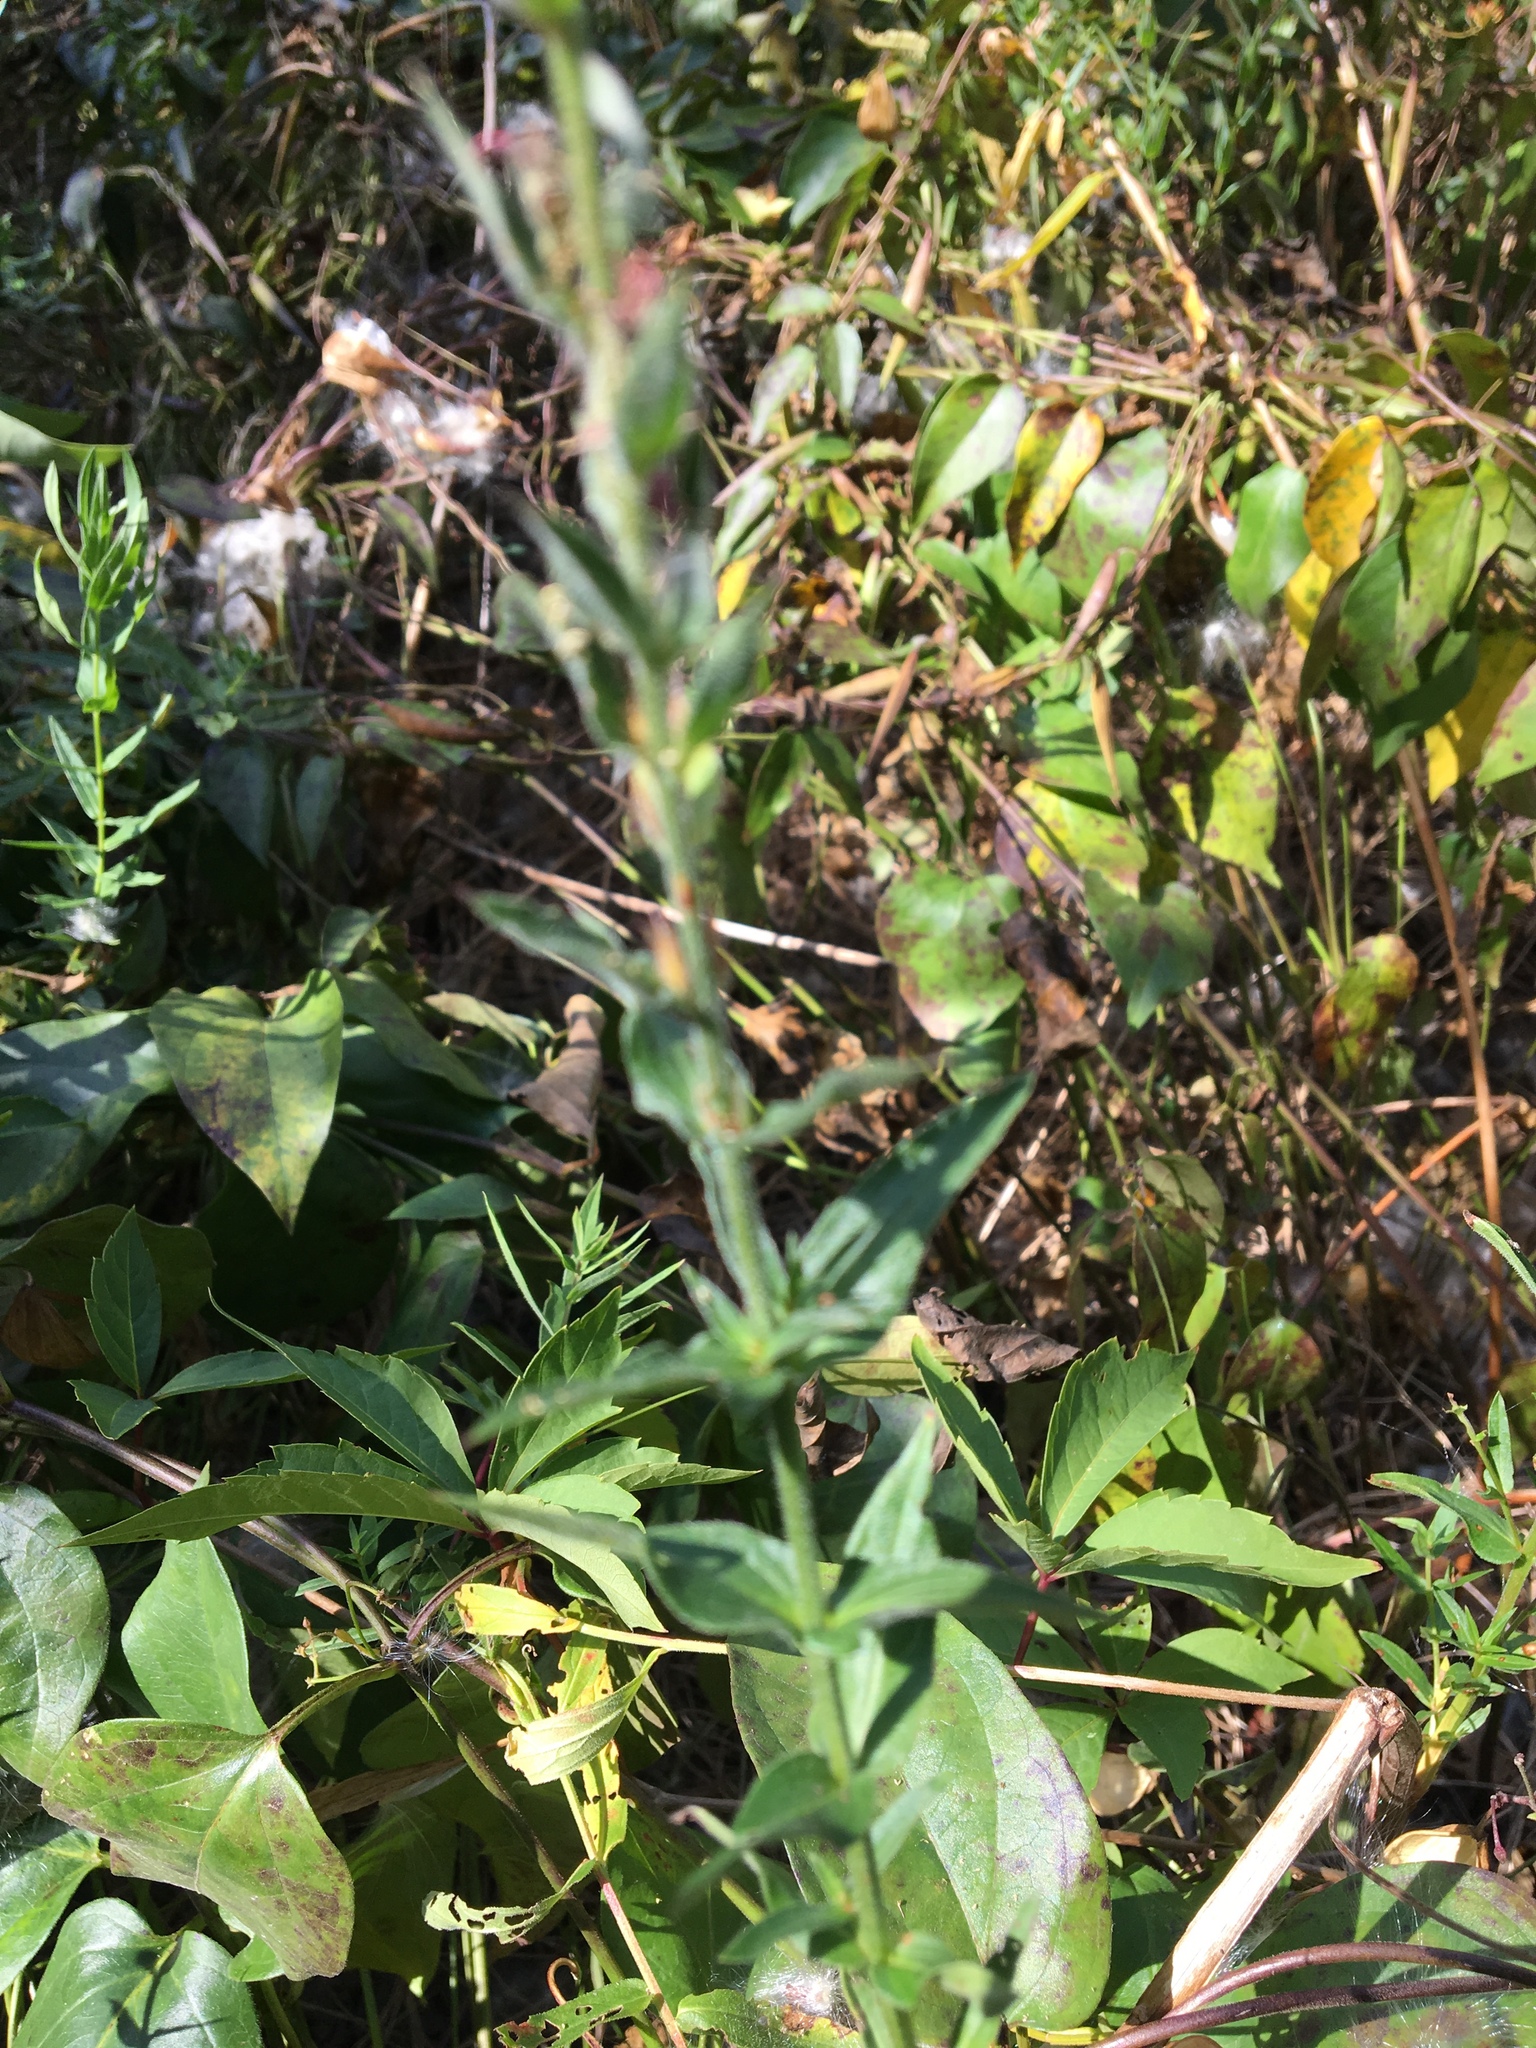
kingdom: Plantae
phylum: Tracheophyta
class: Magnoliopsida
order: Myrtales
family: Lythraceae
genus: Lythrum
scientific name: Lythrum salicaria
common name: Purple loosestrife
